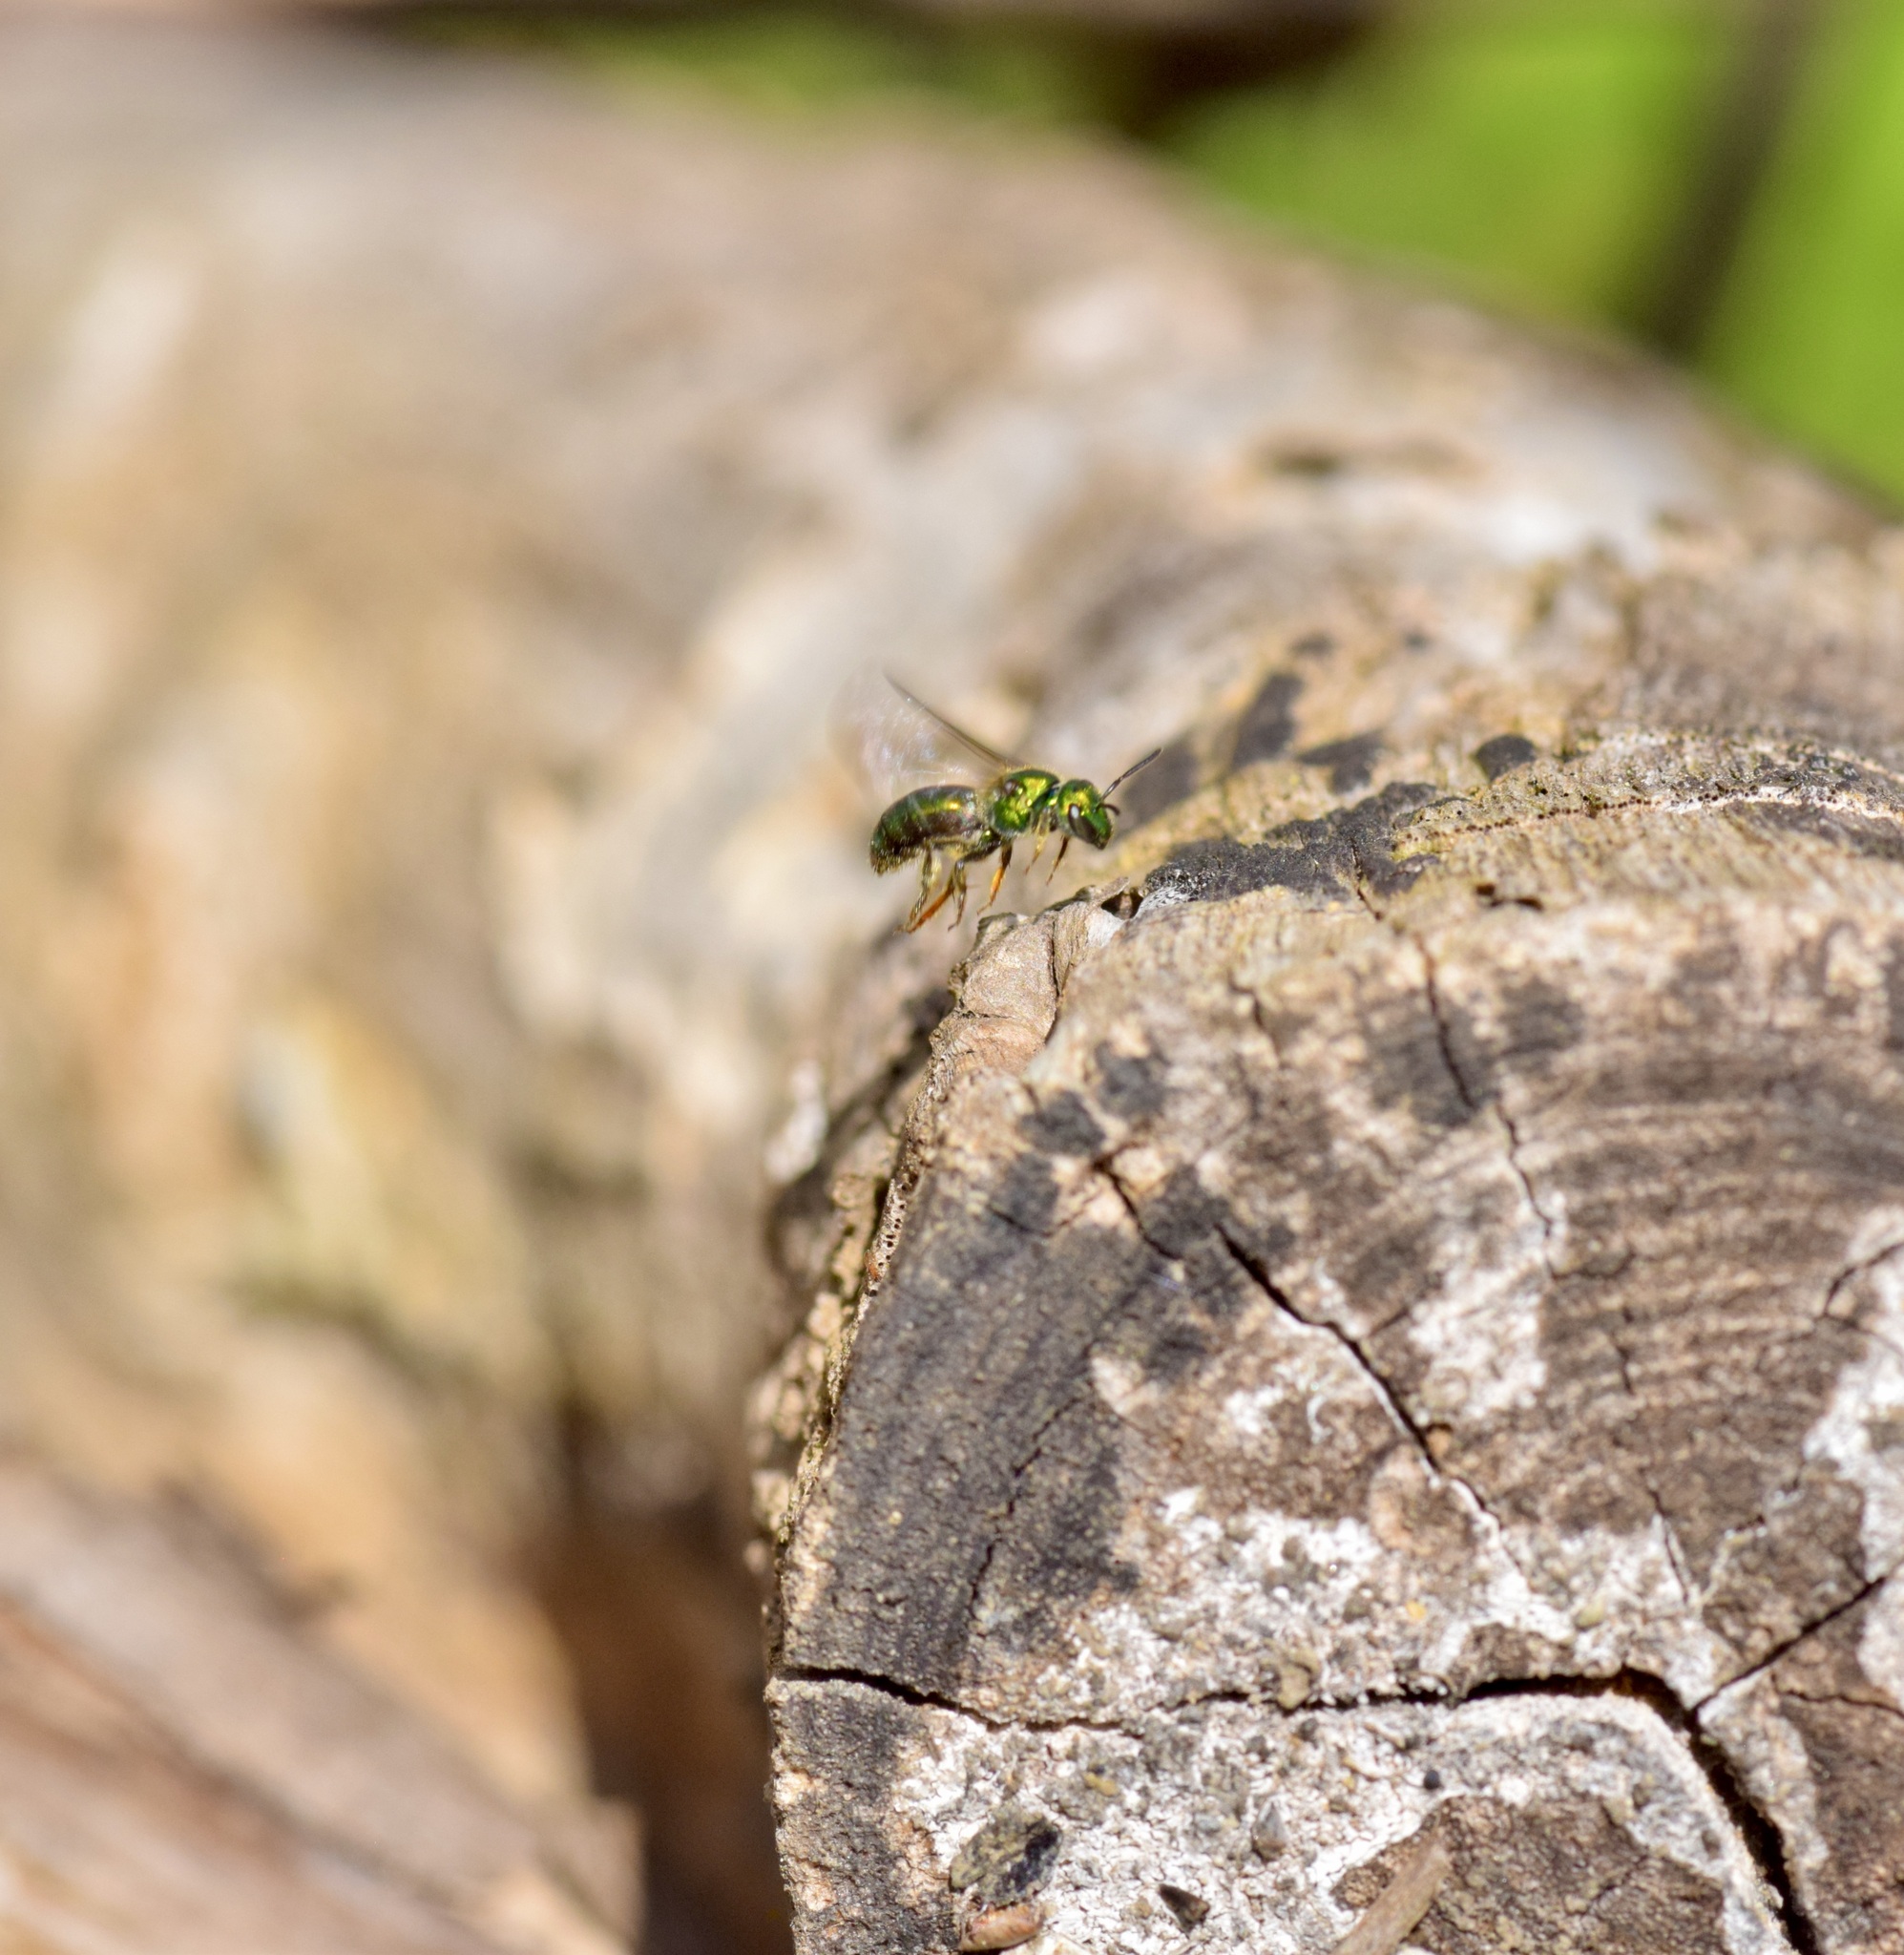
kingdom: Animalia
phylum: Arthropoda
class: Insecta
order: Hymenoptera
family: Halictidae
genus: Augochlora
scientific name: Augochlora pura
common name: Pure green sweat bee
